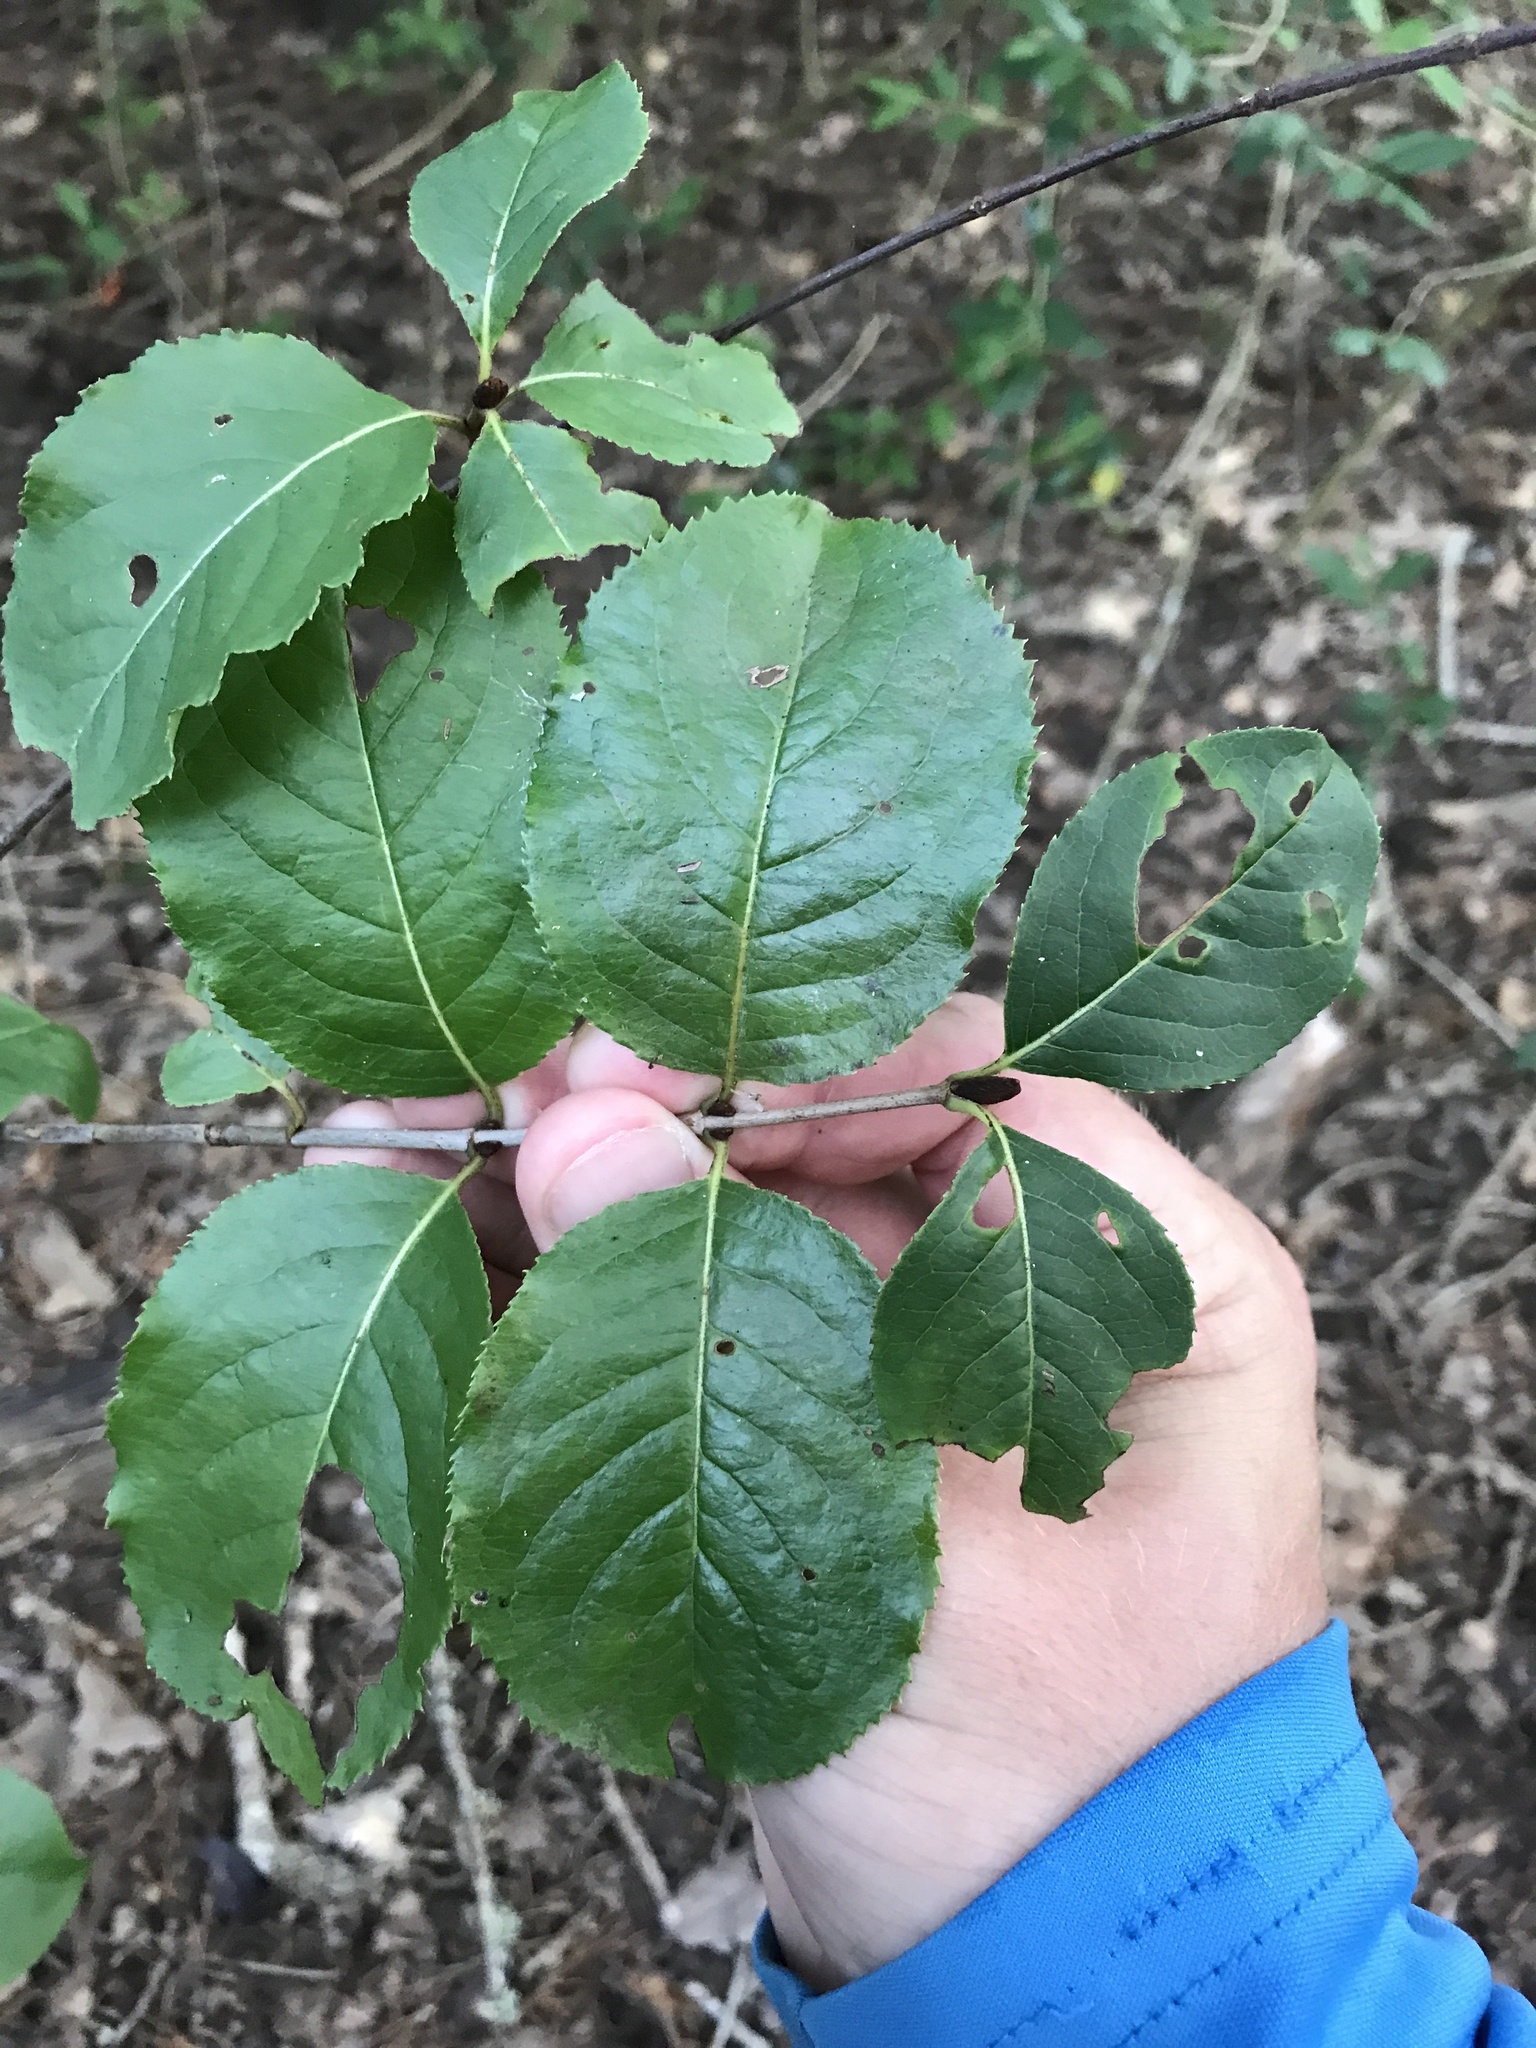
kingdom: Plantae
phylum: Tracheophyta
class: Magnoliopsida
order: Dipsacales
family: Viburnaceae
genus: Viburnum
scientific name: Viburnum rufidulum
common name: Blue haw
